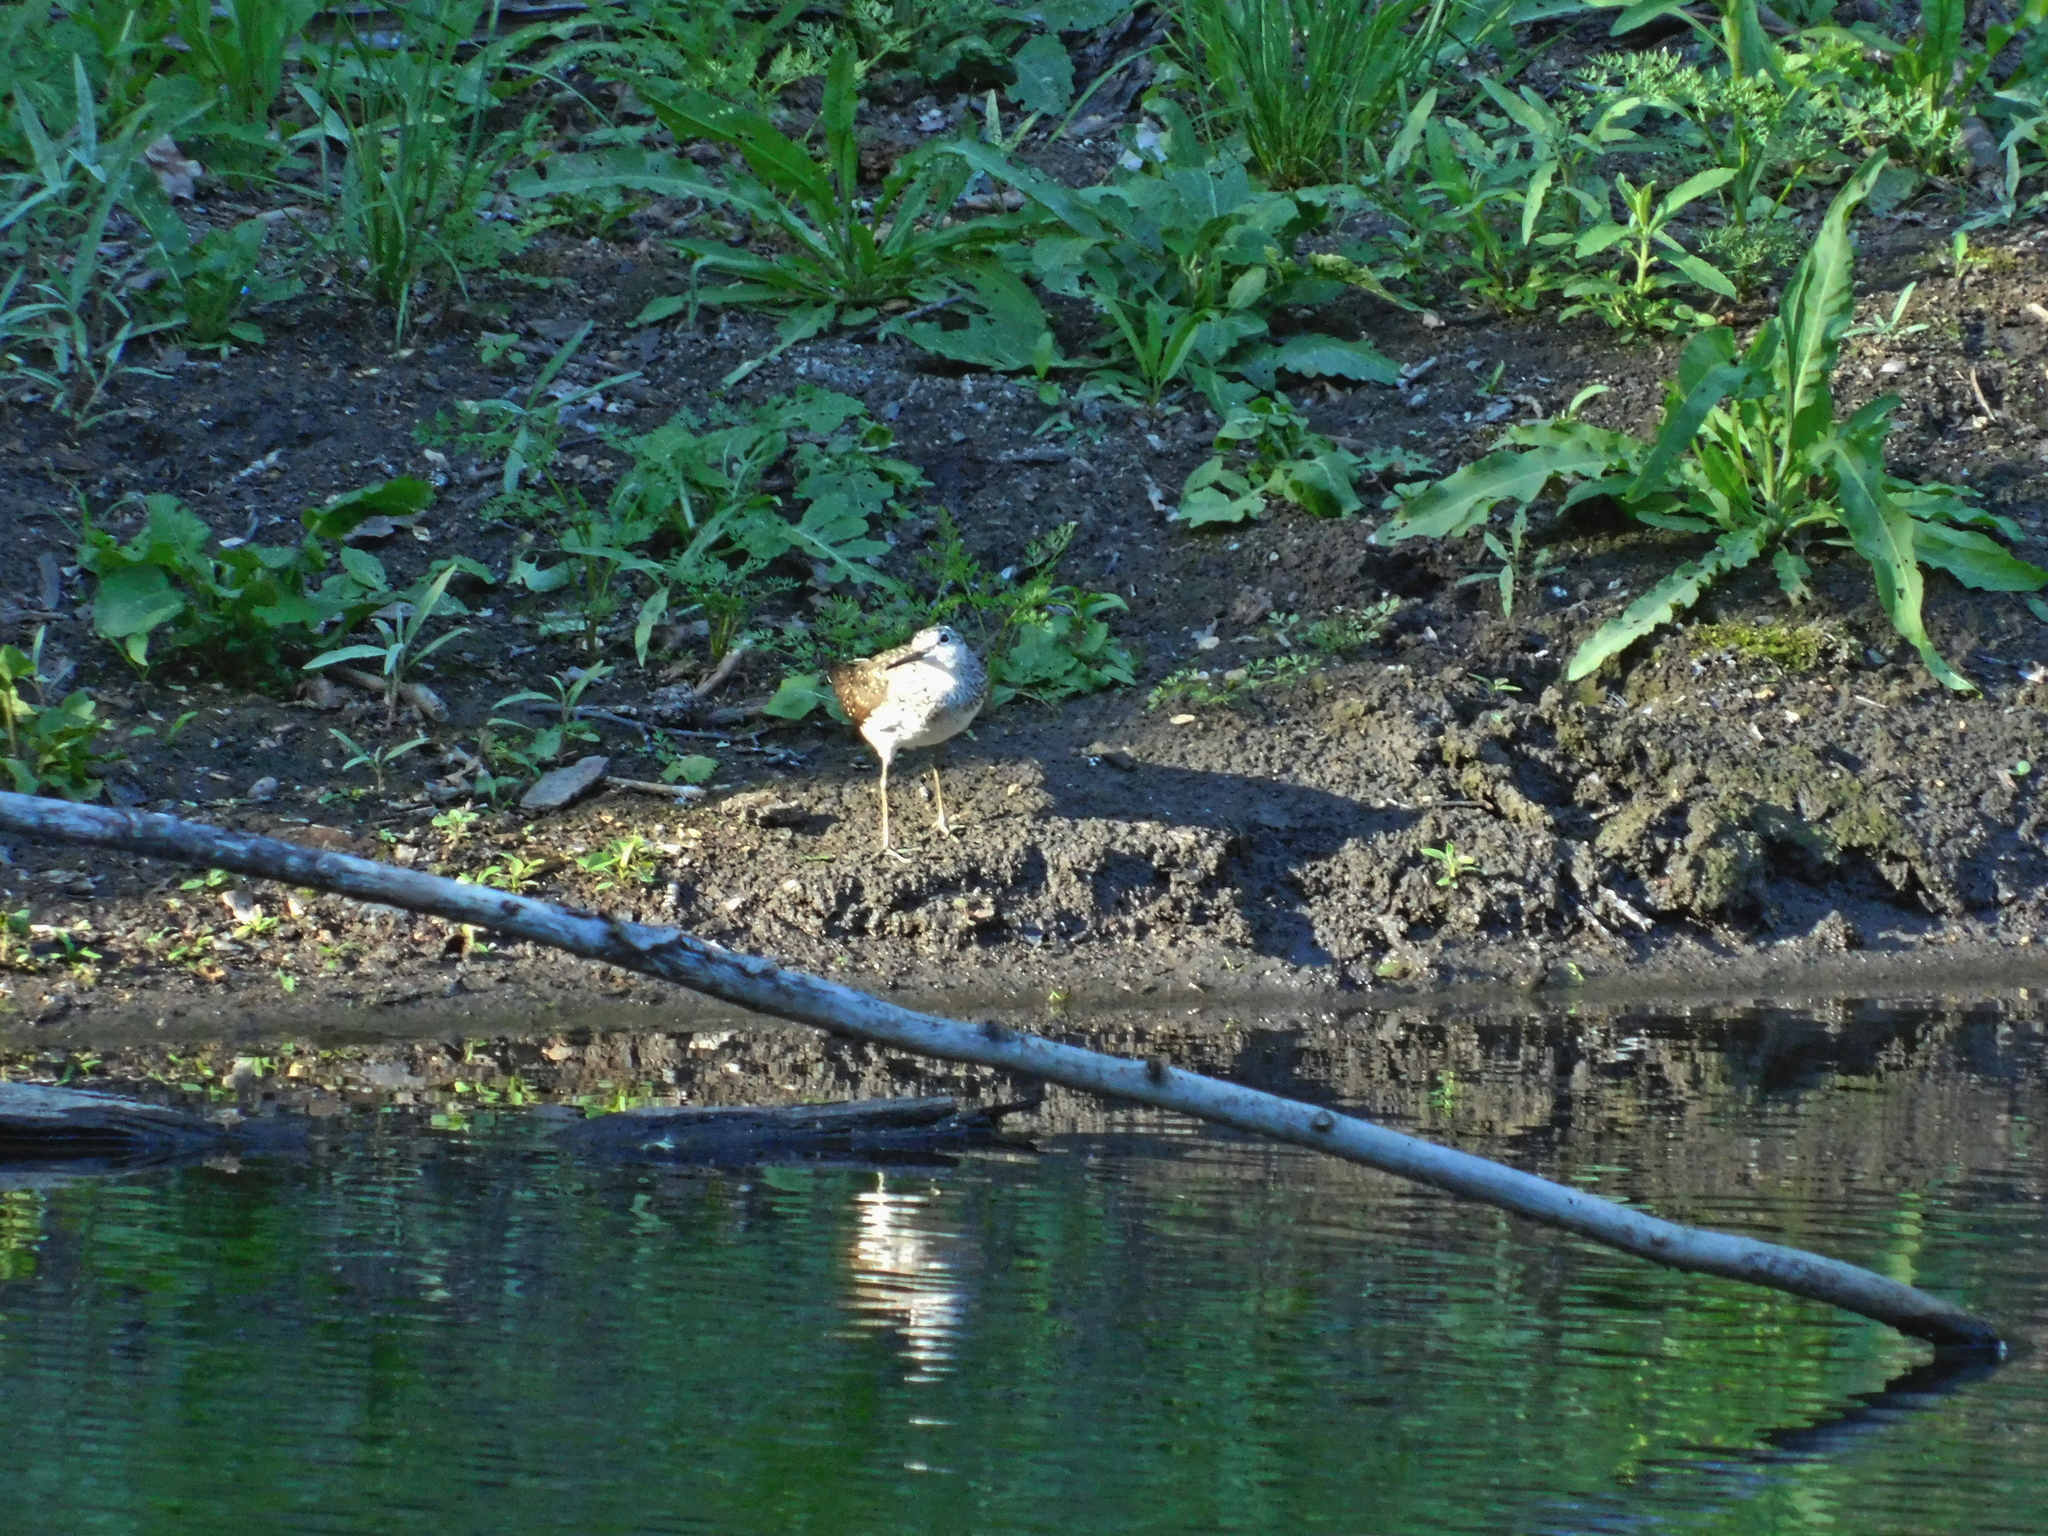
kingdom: Animalia
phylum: Chordata
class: Aves
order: Charadriiformes
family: Scolopacidae
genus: Tringa
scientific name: Tringa ochropus
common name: Green sandpiper
